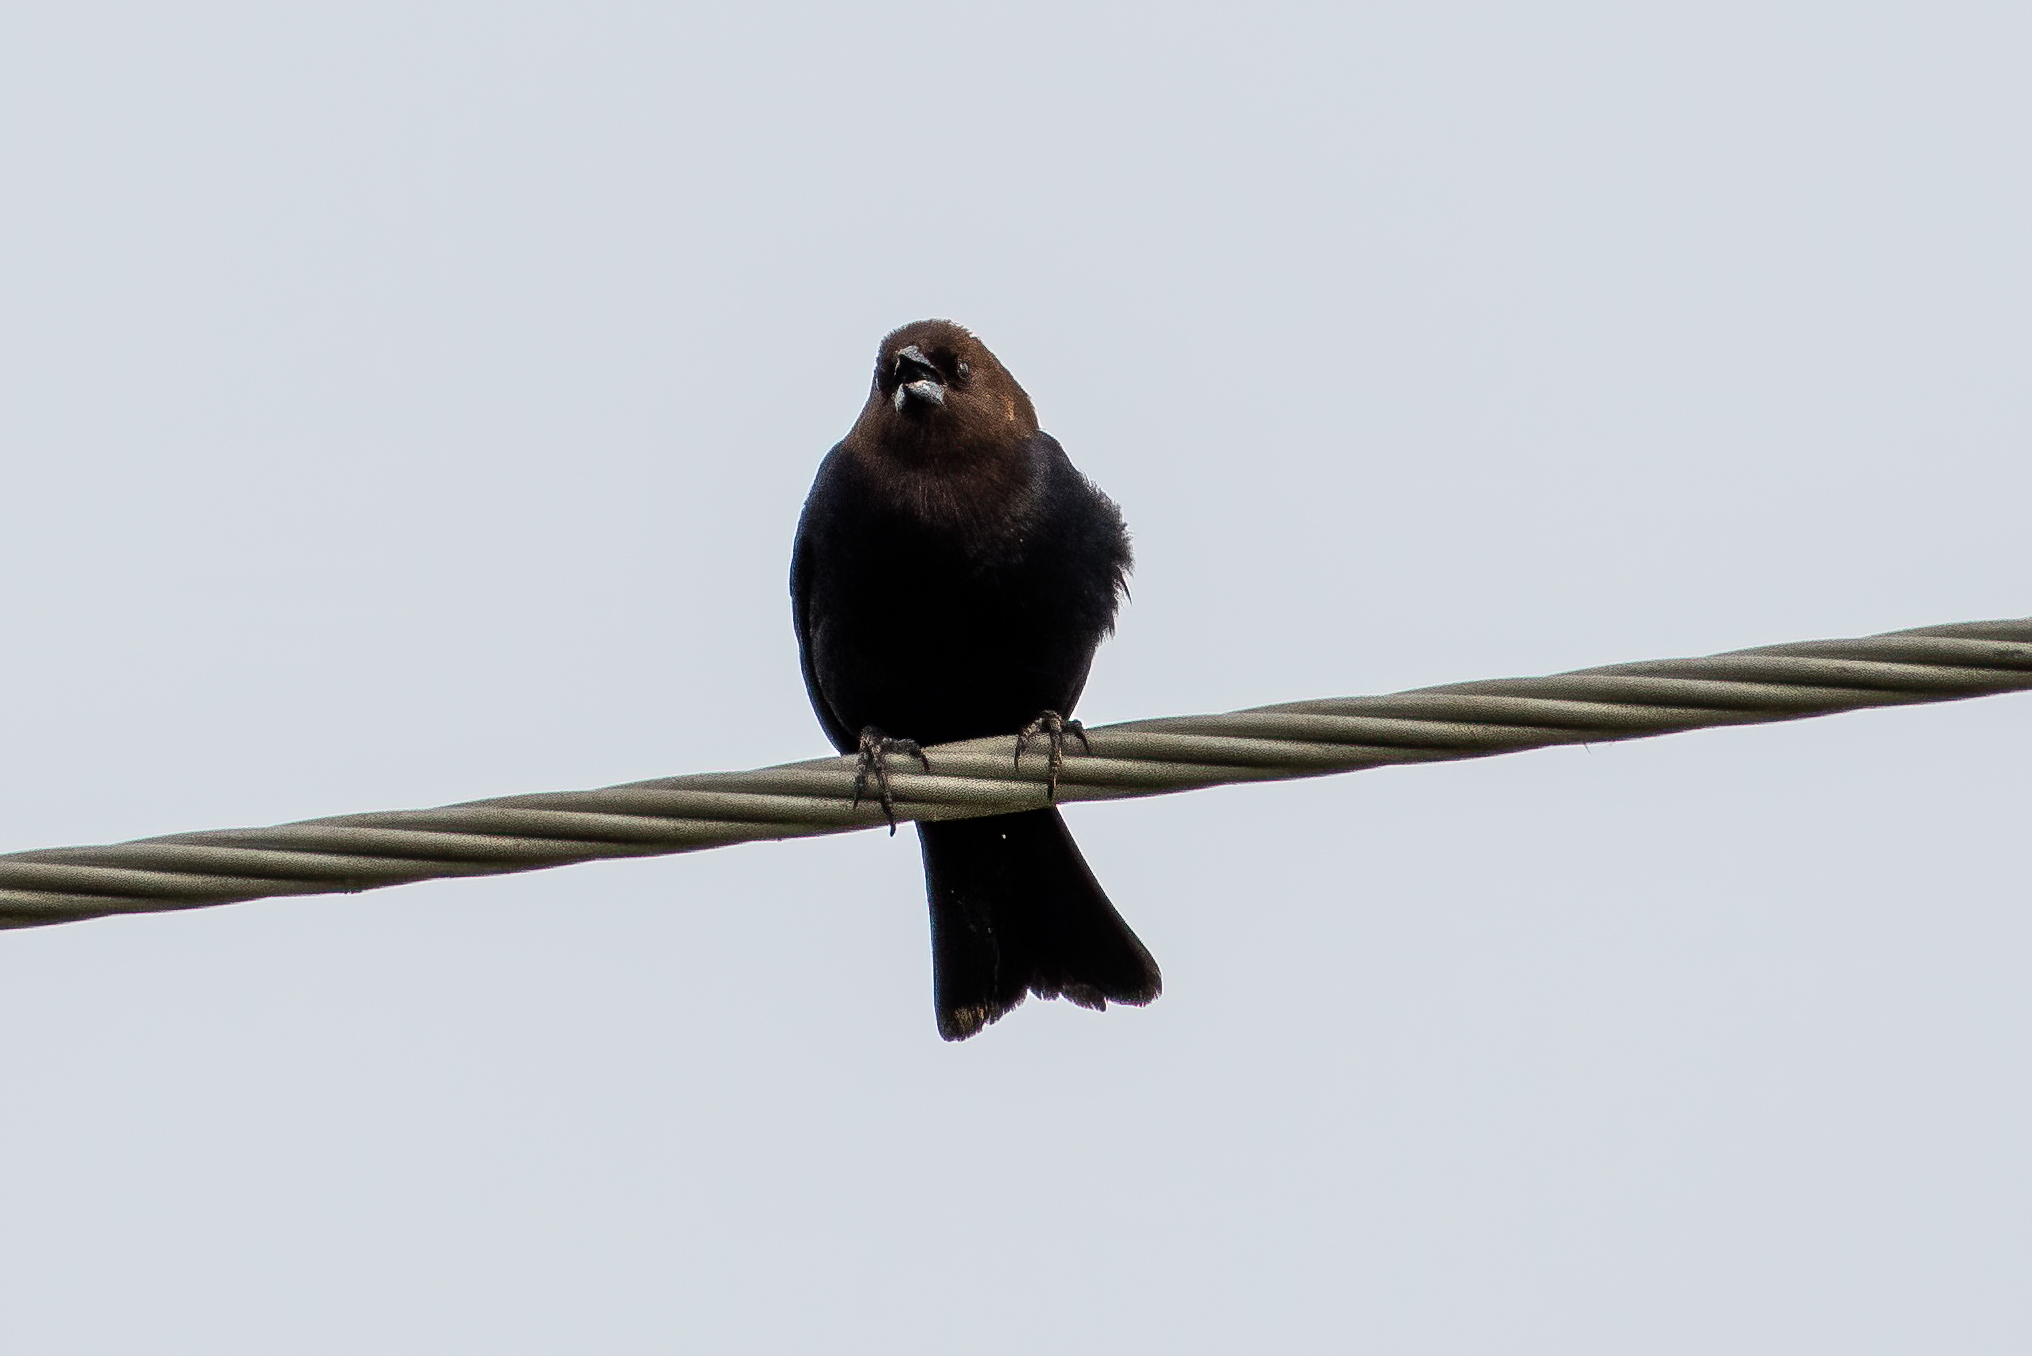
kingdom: Animalia
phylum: Chordata
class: Aves
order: Passeriformes
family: Icteridae
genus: Molothrus
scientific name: Molothrus ater
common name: Brown-headed cowbird
